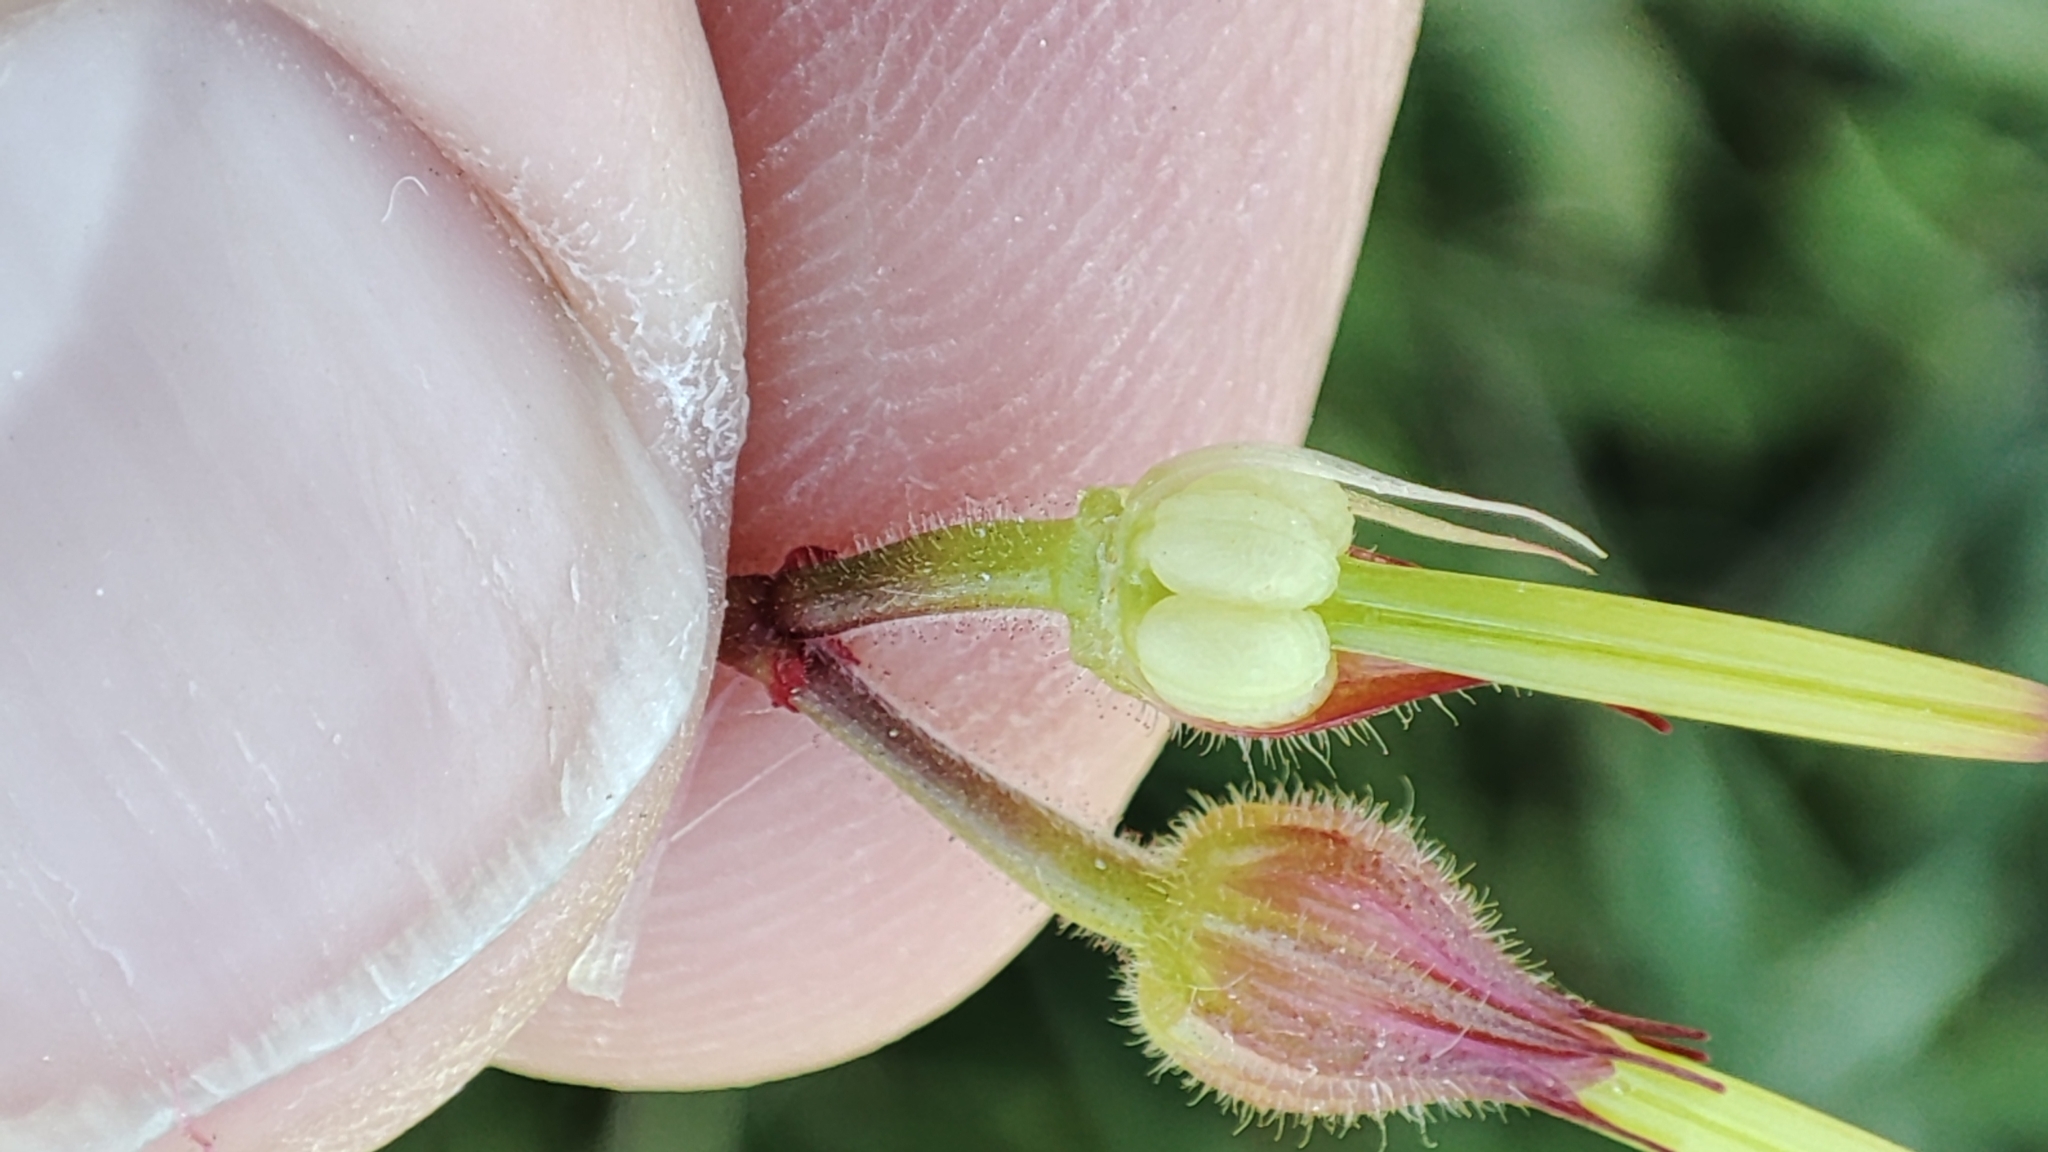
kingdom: Plantae
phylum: Tracheophyta
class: Magnoliopsida
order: Geraniales
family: Geraniaceae
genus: Geranium
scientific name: Geranium purpureum
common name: Little-robin
